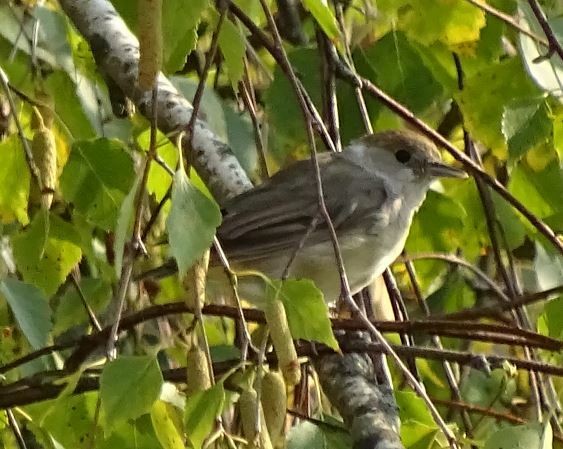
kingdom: Animalia
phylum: Chordata
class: Aves
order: Passeriformes
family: Sylviidae
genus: Sylvia
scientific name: Sylvia atricapilla
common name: Eurasian blackcap
